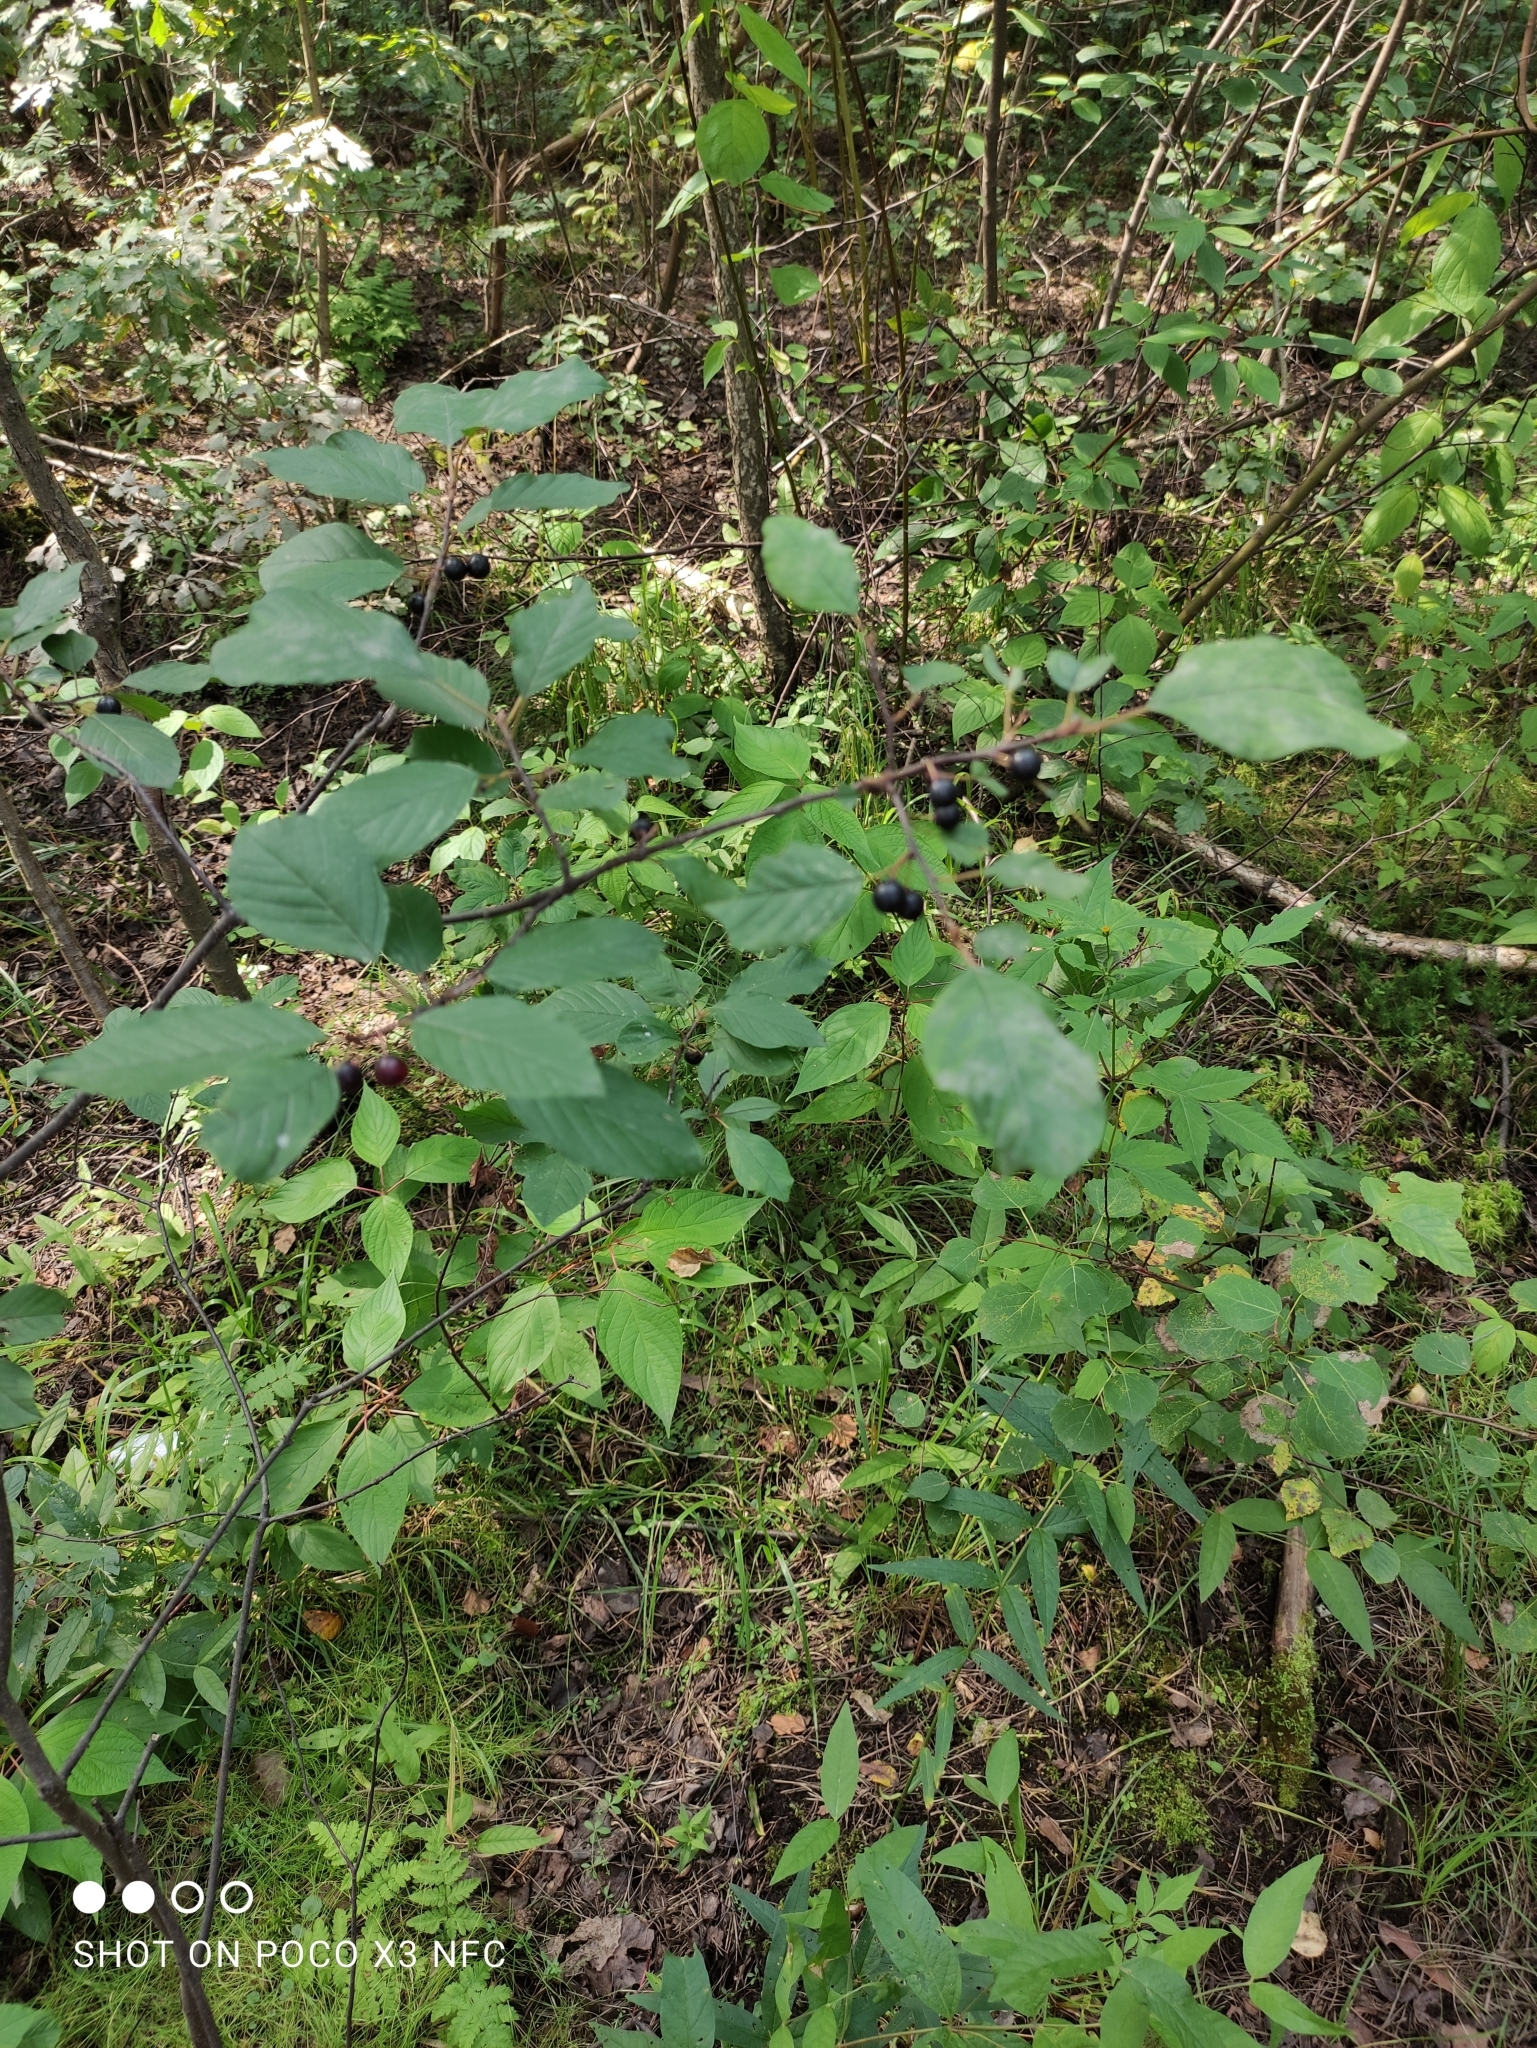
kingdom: Plantae
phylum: Tracheophyta
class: Magnoliopsida
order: Rosales
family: Rhamnaceae
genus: Frangula
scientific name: Frangula alnus
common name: Alder buckthorn
